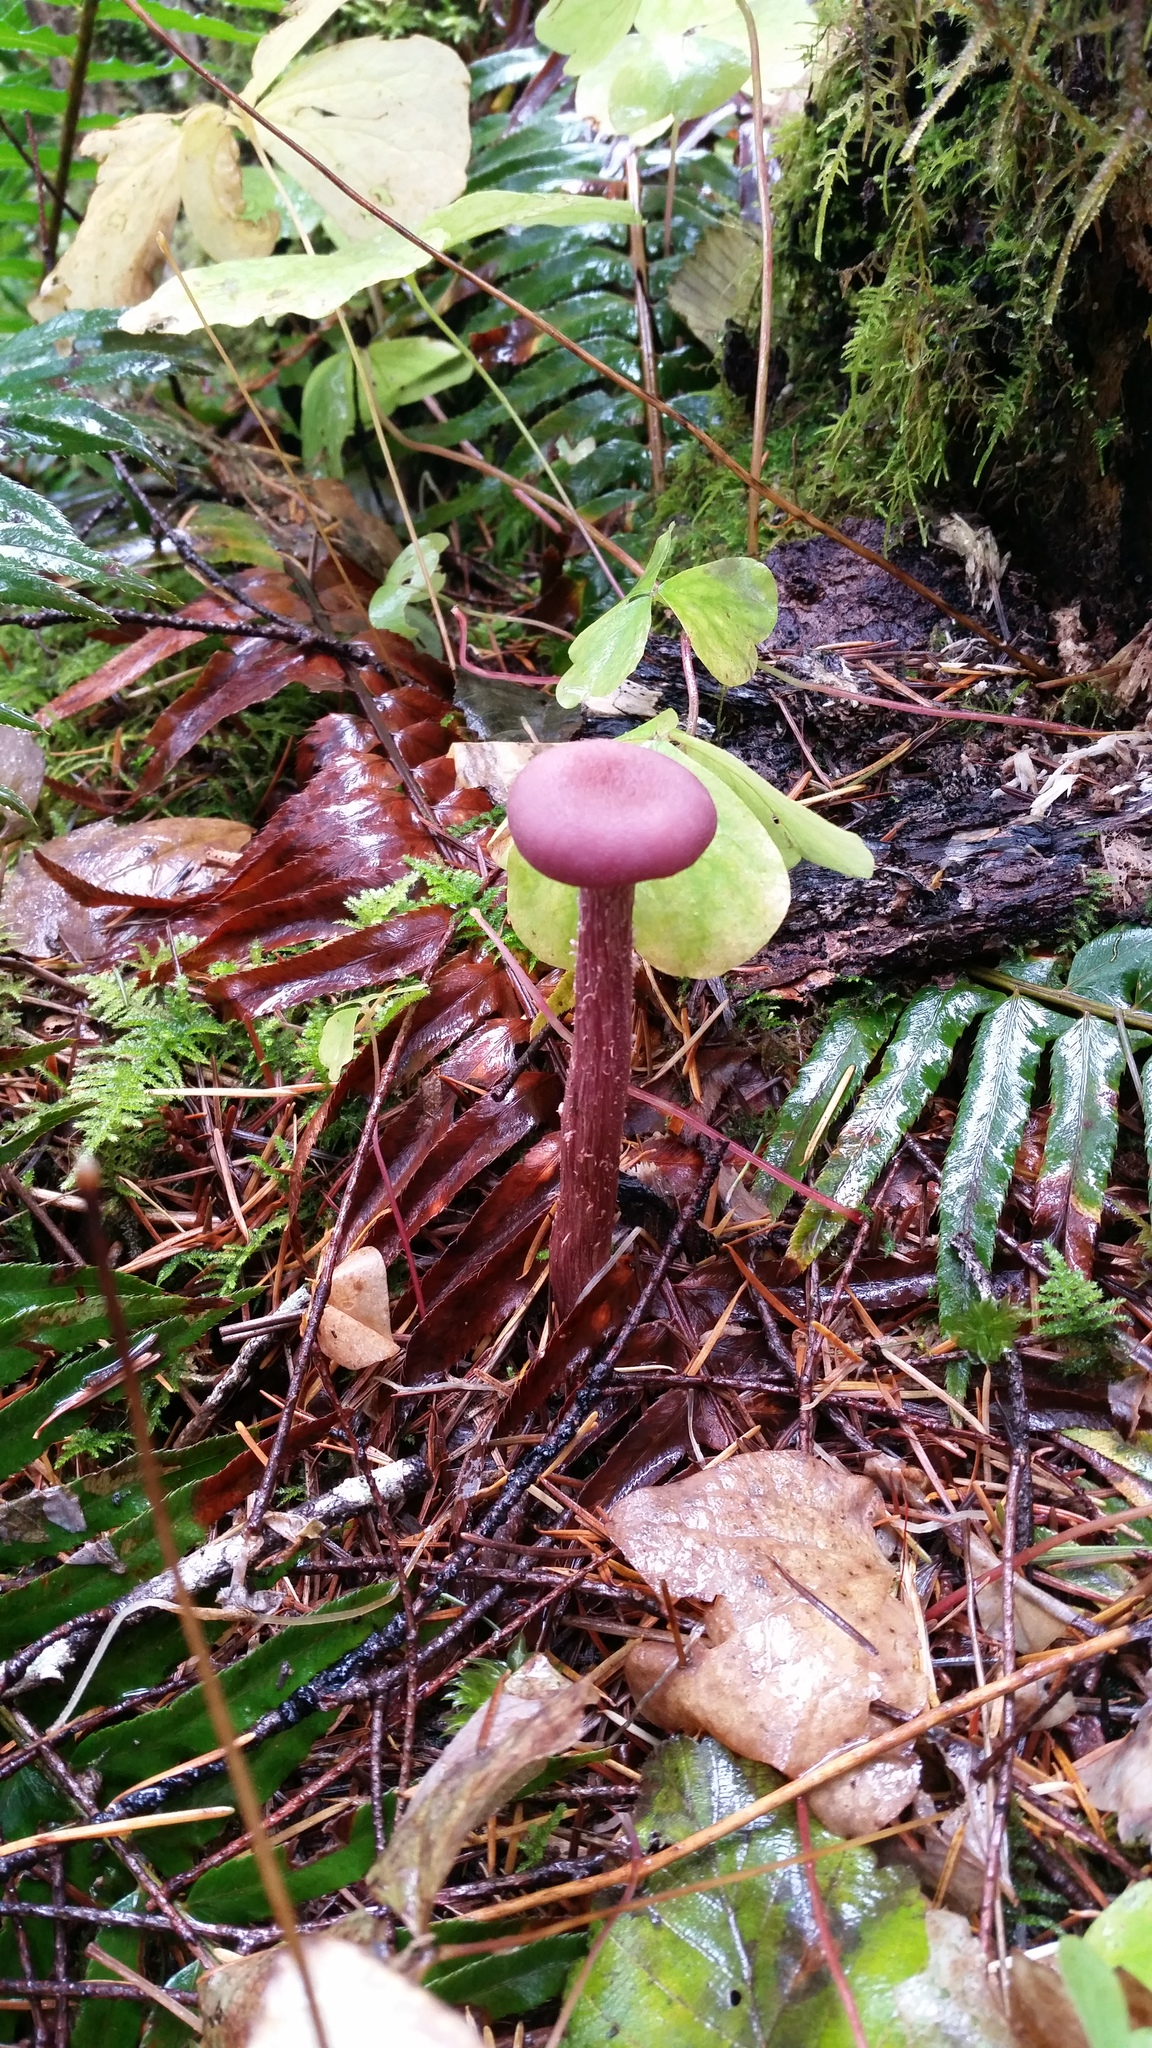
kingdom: Fungi
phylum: Basidiomycota
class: Agaricomycetes
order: Agaricales
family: Hydnangiaceae
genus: Laccaria
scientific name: Laccaria amethysteo-occidentalis
